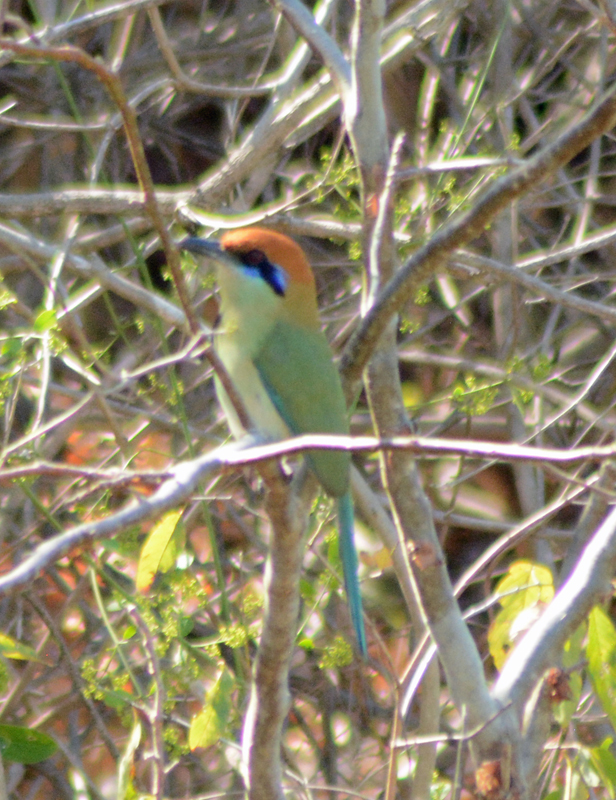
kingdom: Animalia
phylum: Chordata
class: Aves
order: Coraciiformes
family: Momotidae
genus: Momotus
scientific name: Momotus mexicanus
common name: Russet-crowned motmot
